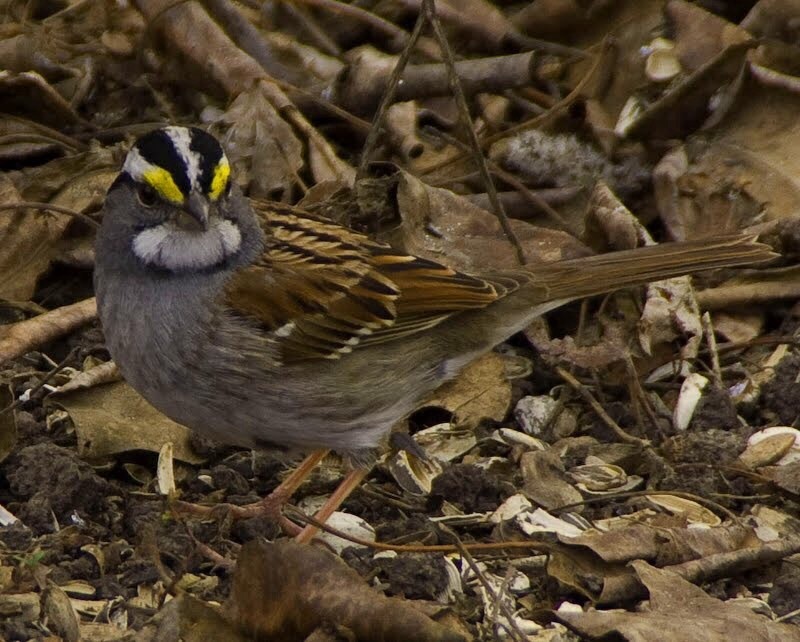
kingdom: Animalia
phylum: Chordata
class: Aves
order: Passeriformes
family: Passerellidae
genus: Zonotrichia
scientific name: Zonotrichia albicollis
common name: White-throated sparrow
